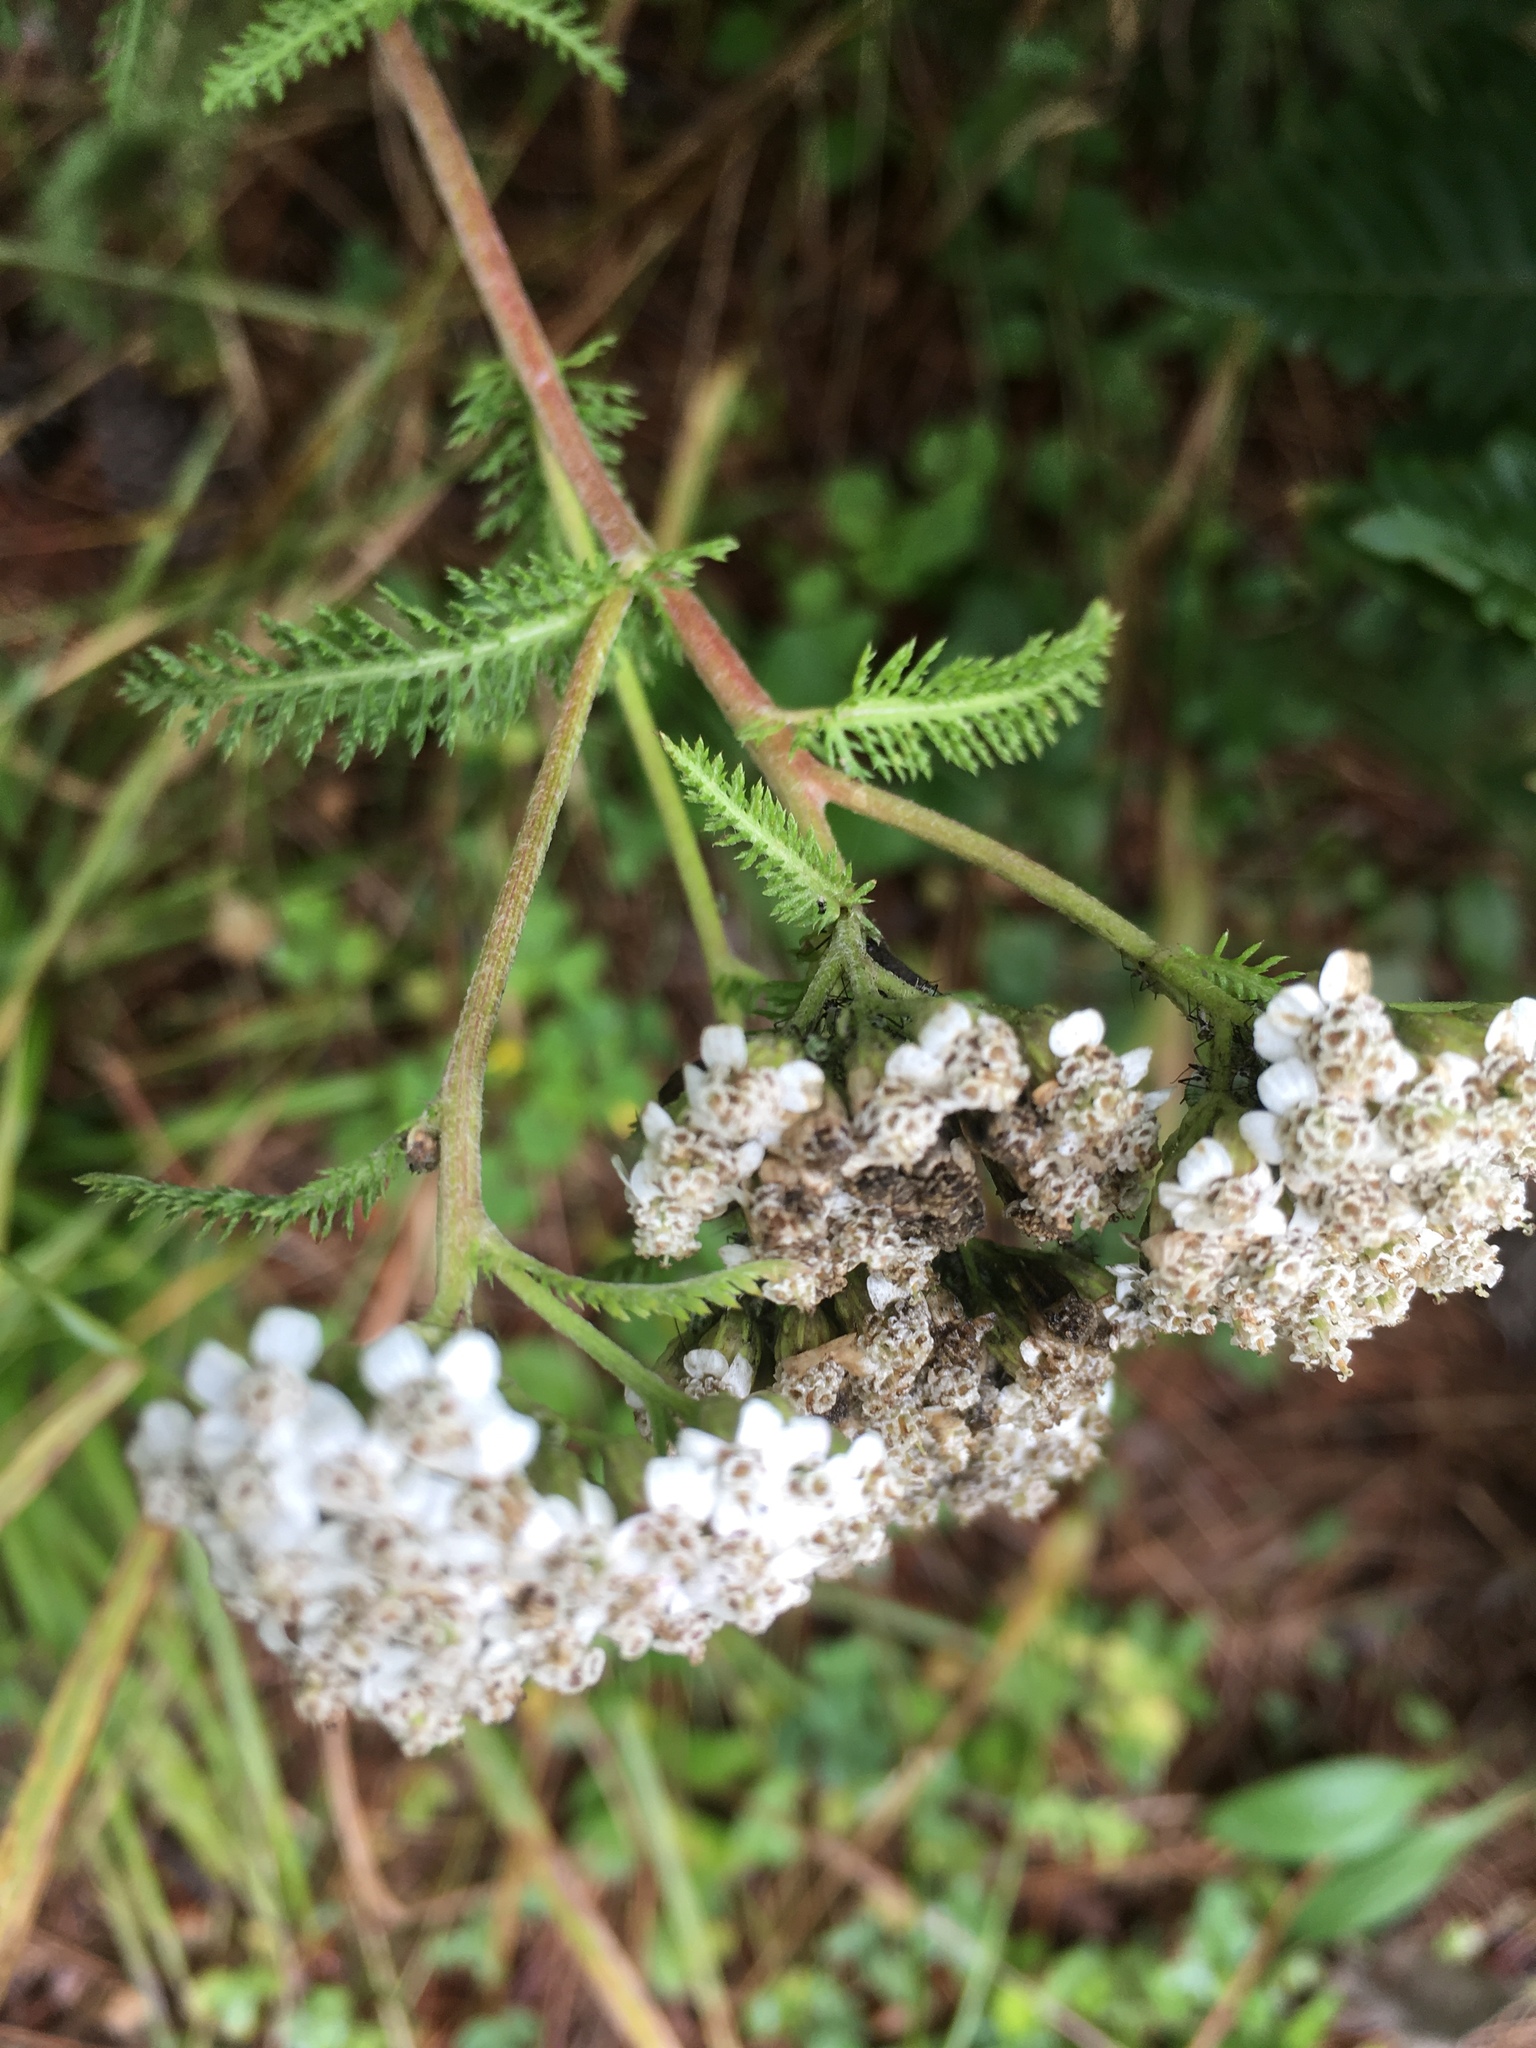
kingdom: Plantae
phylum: Tracheophyta
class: Magnoliopsida
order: Asterales
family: Asteraceae
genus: Achillea
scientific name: Achillea millefolium
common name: Yarrow
